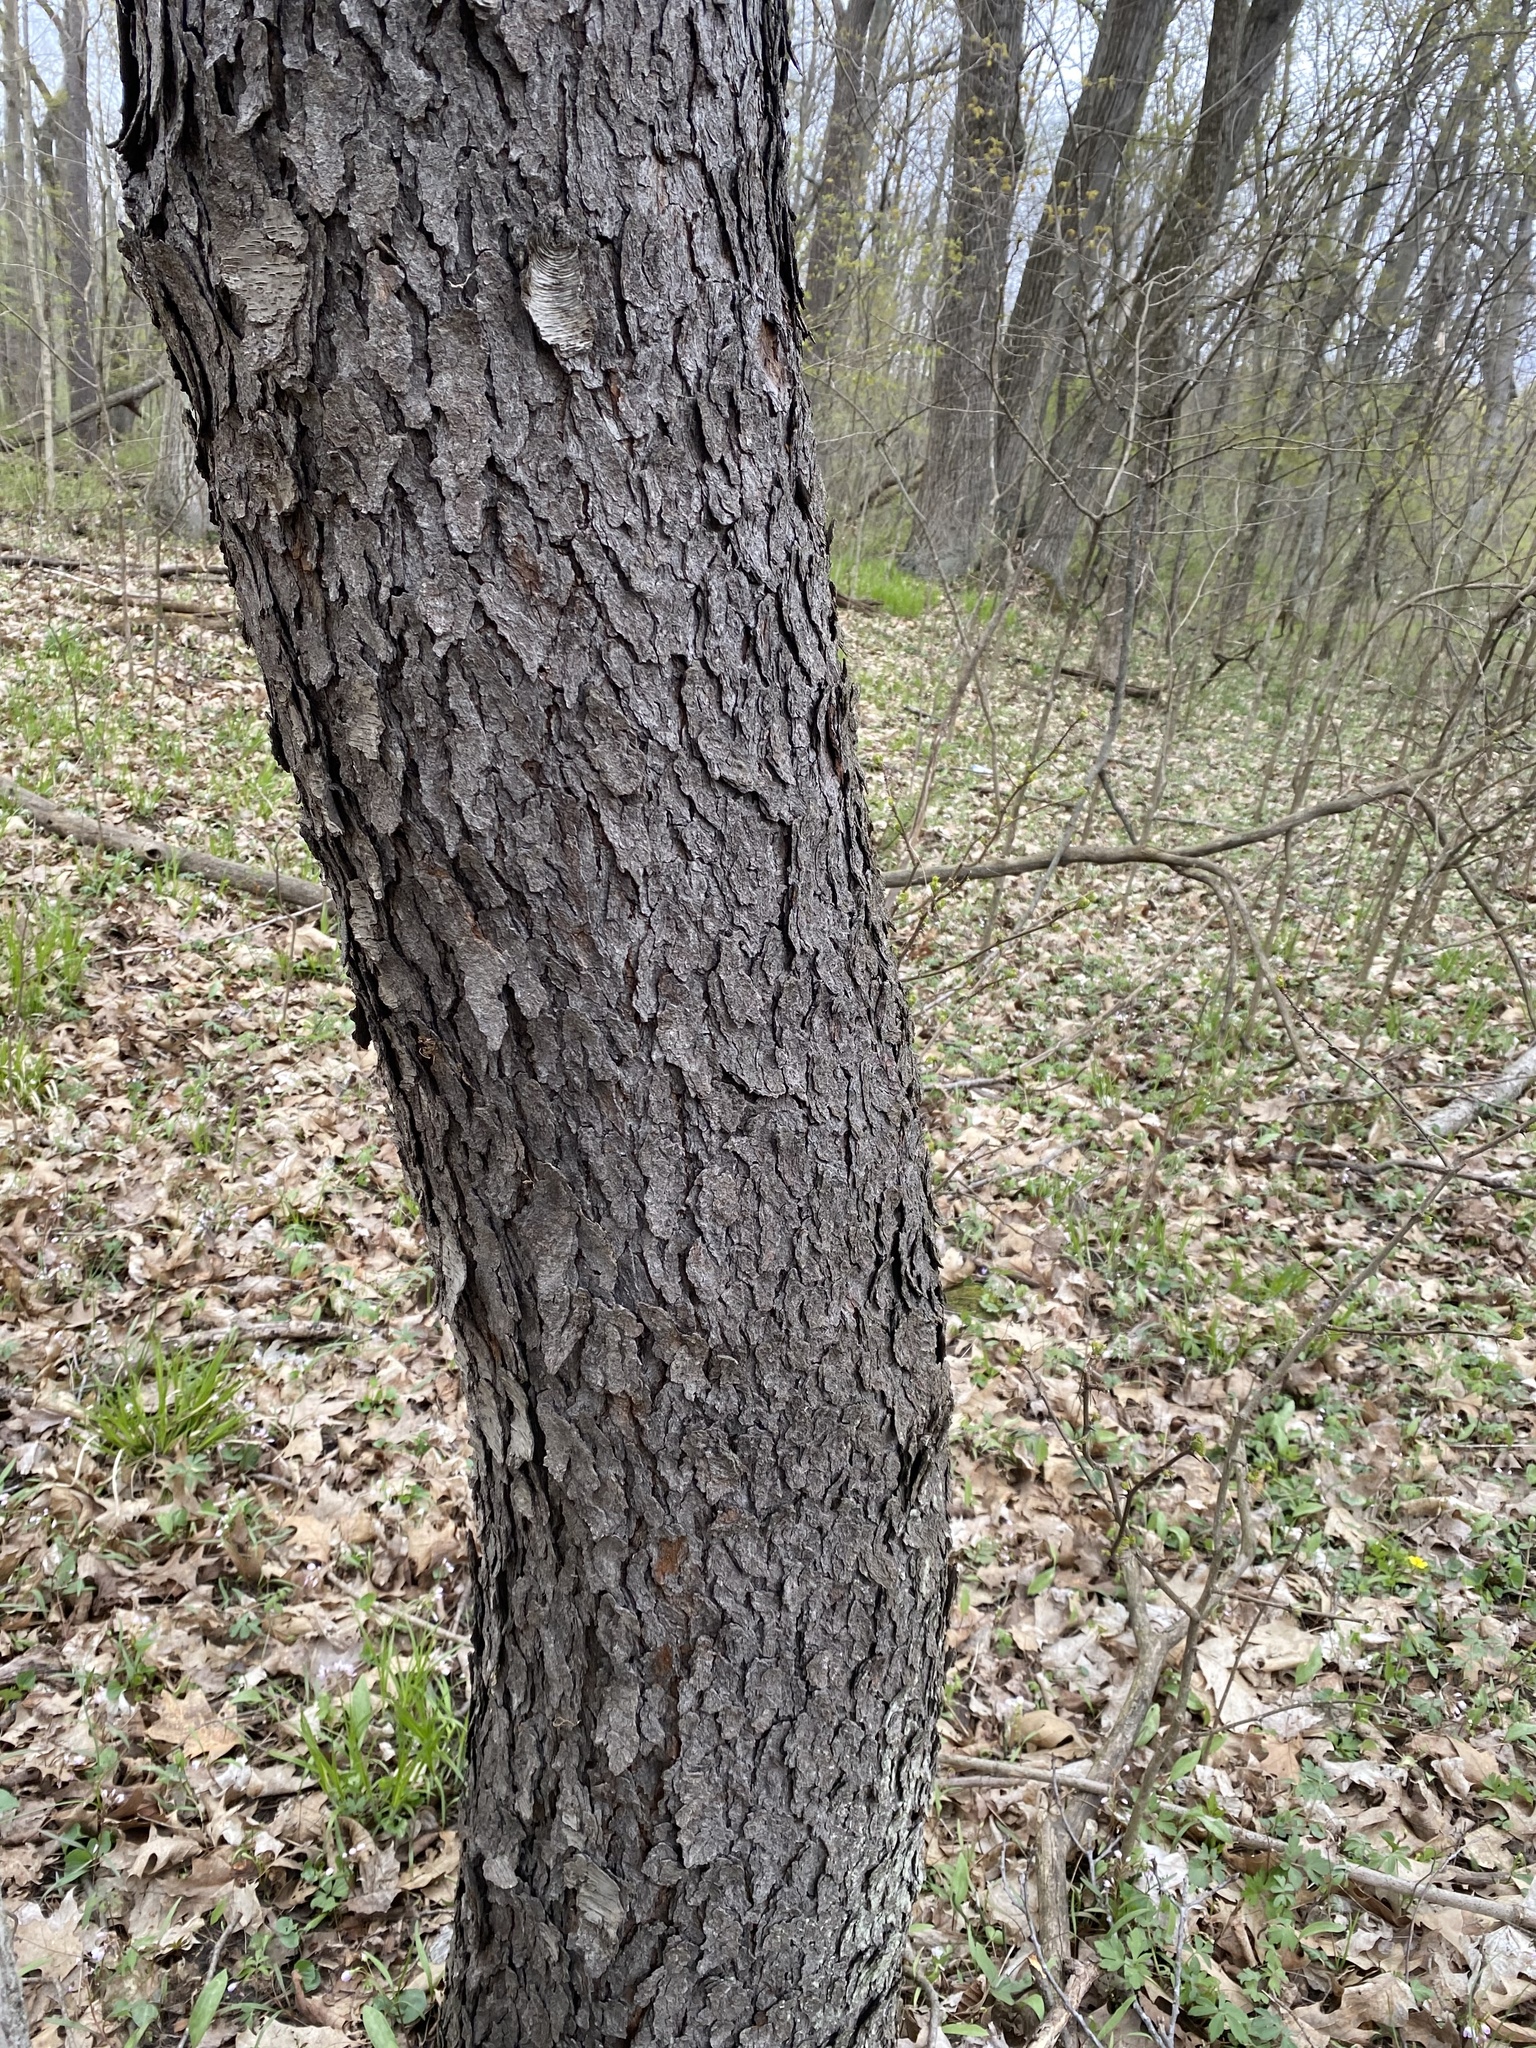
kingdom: Plantae
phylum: Tracheophyta
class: Magnoliopsida
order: Rosales
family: Rosaceae
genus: Prunus
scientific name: Prunus serotina
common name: Black cherry
